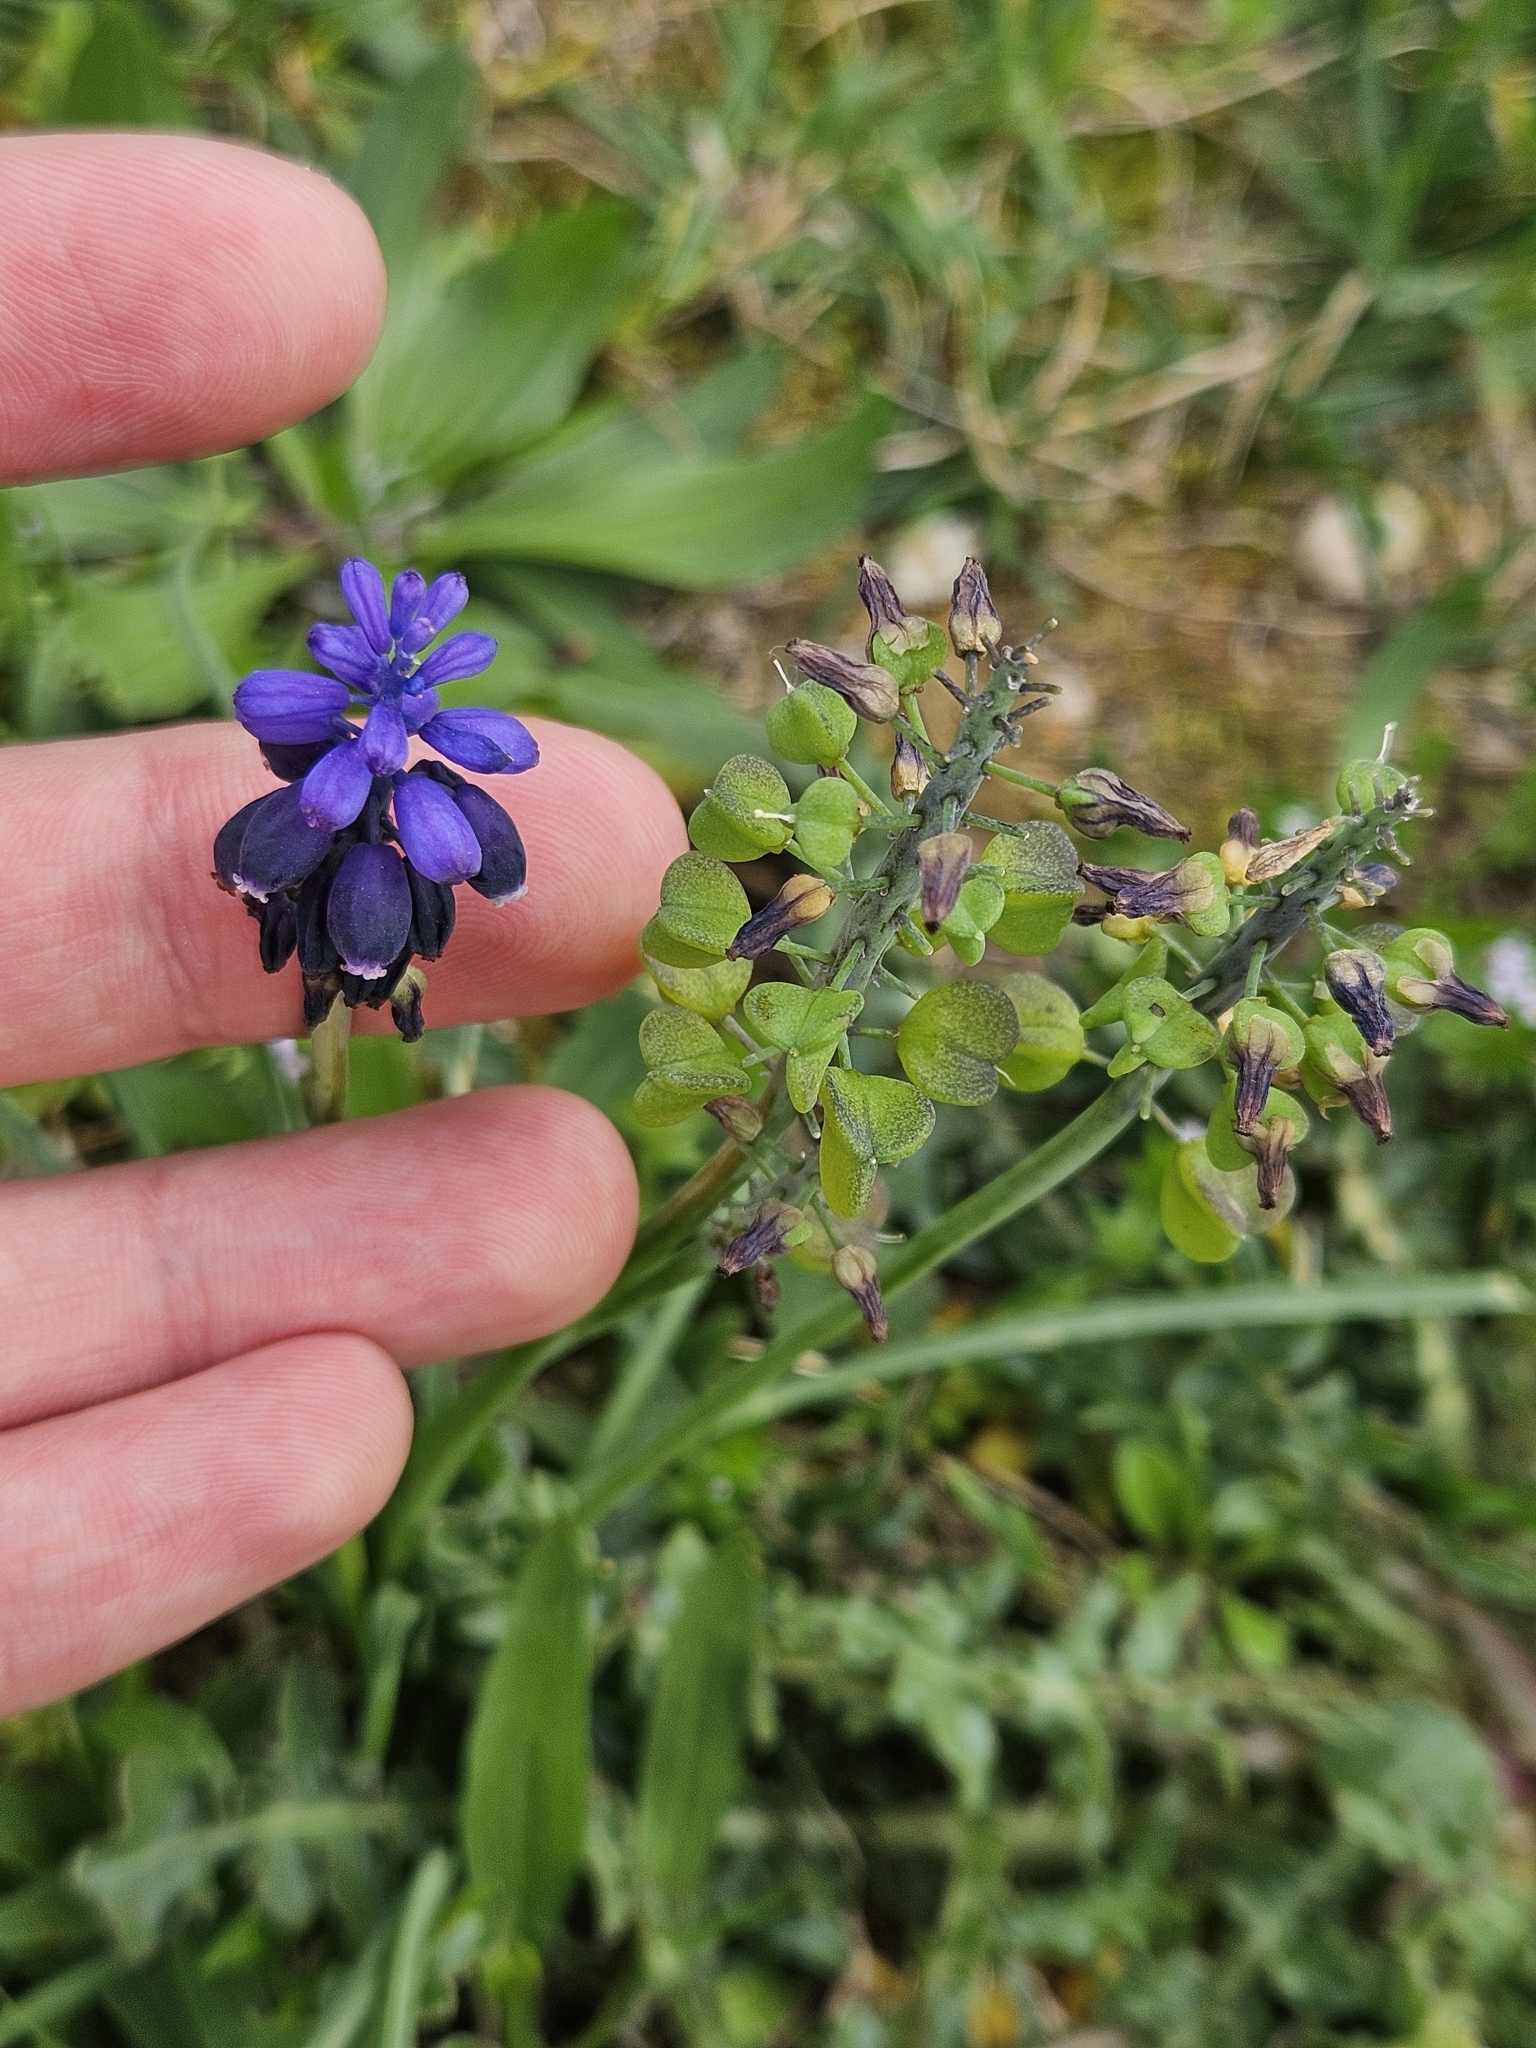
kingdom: Plantae
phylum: Tracheophyta
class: Liliopsida
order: Asparagales
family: Asparagaceae
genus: Muscari
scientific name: Muscari neglectum
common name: Grape-hyacinth
